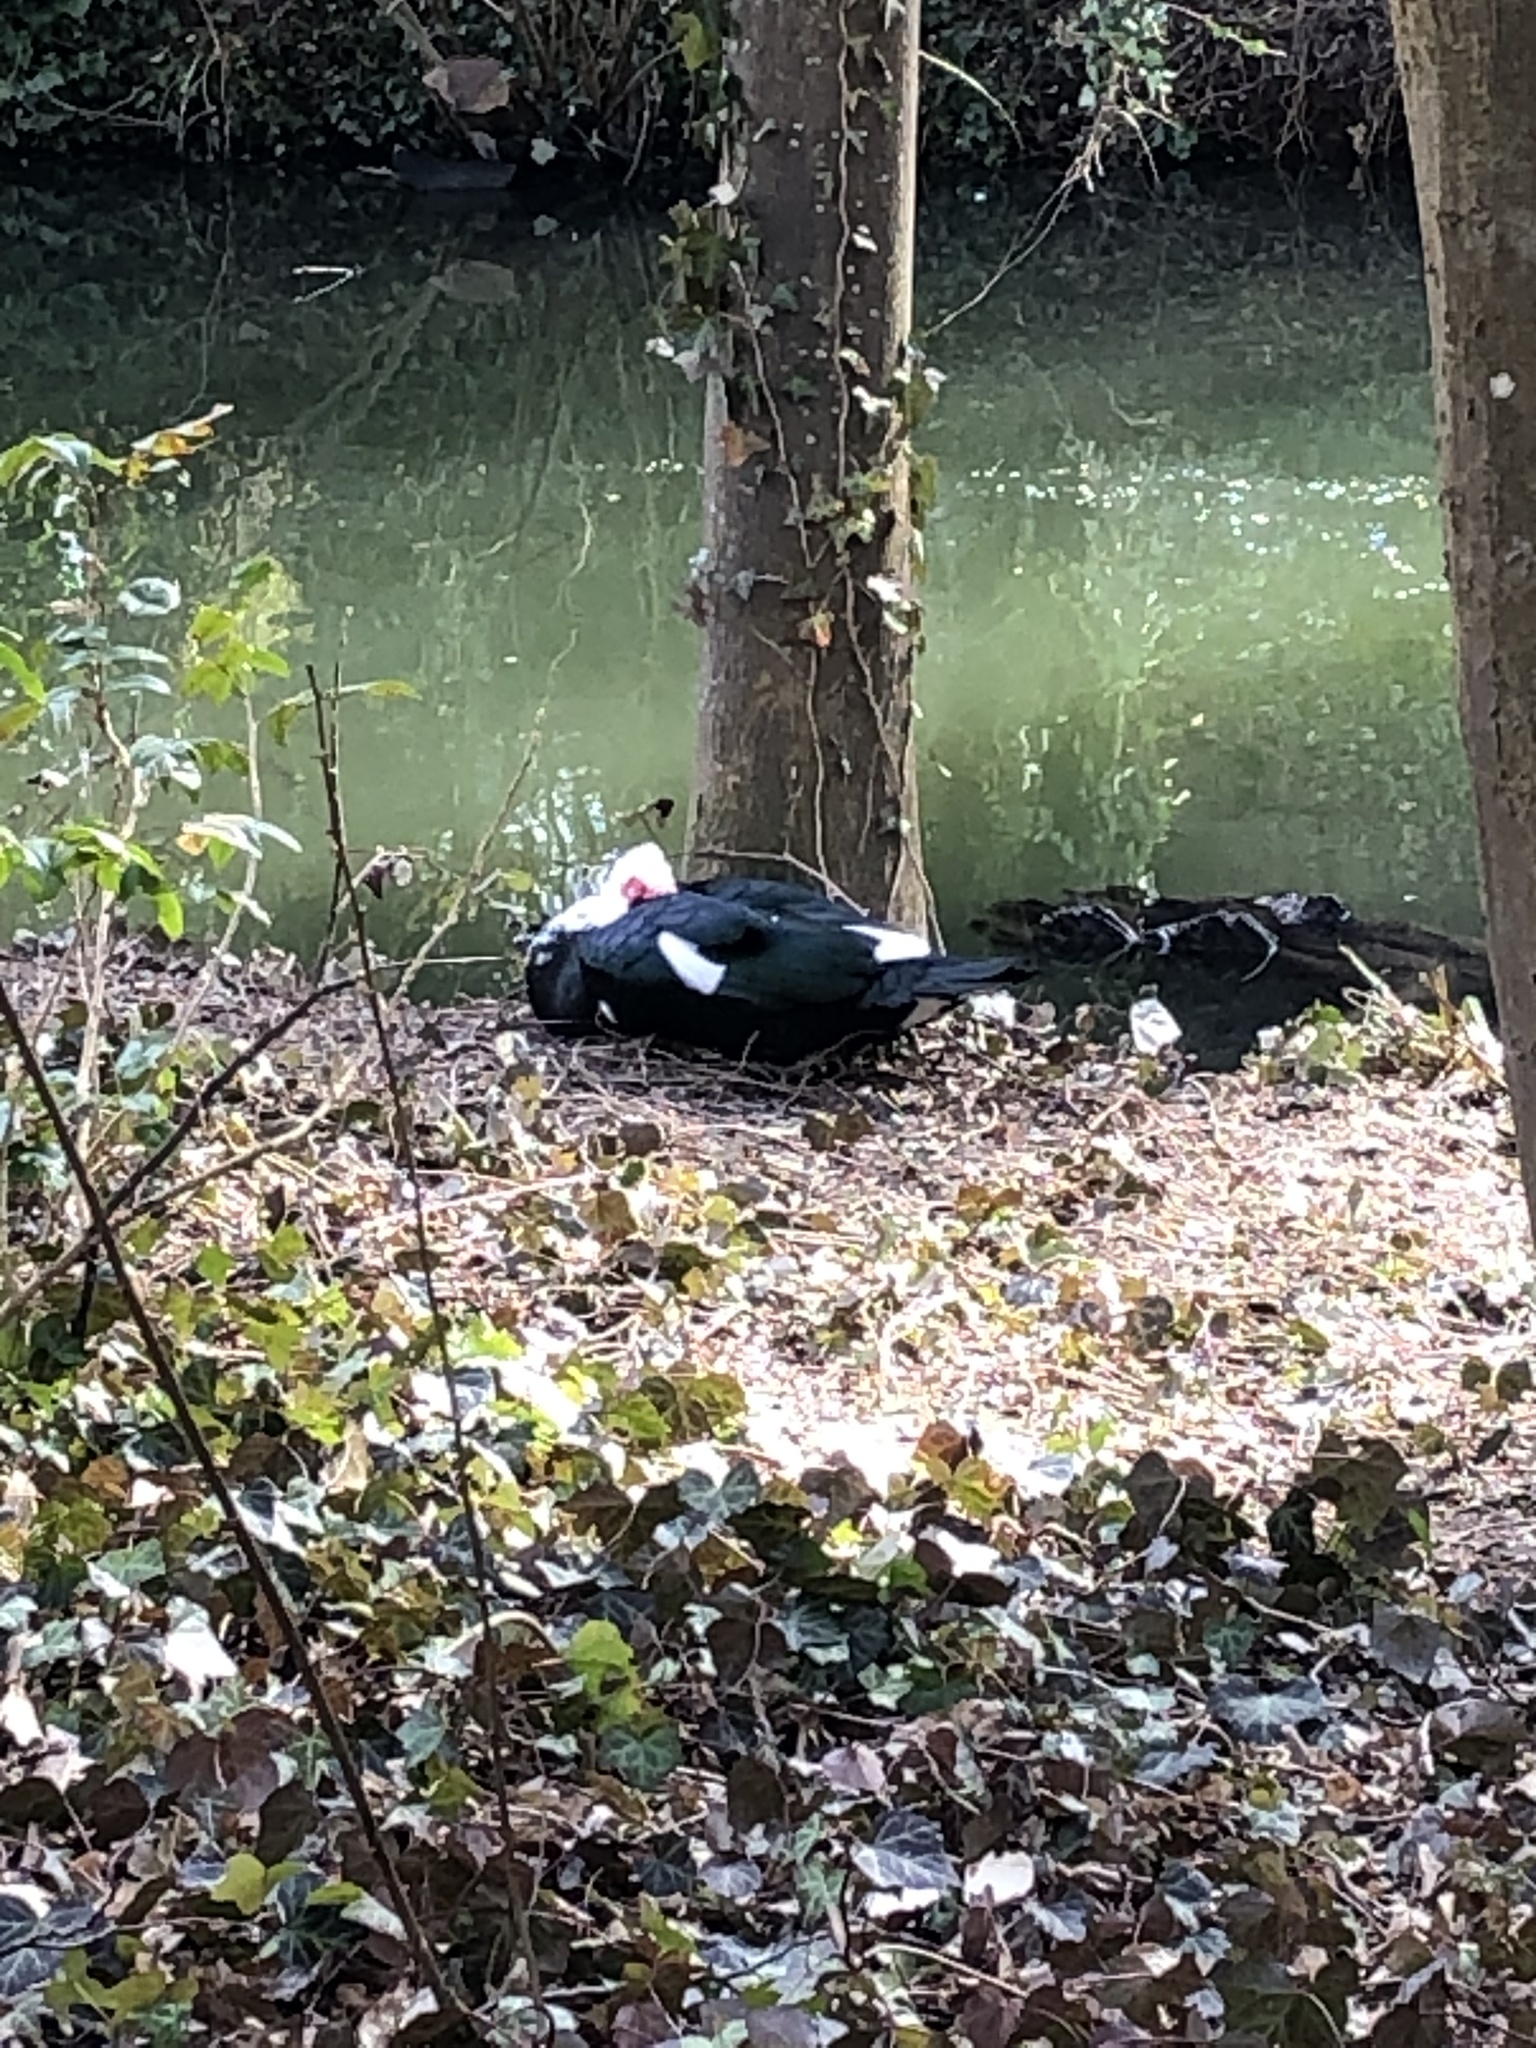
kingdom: Animalia
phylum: Chordata
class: Aves
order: Anseriformes
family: Anatidae
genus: Cairina
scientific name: Cairina moschata
